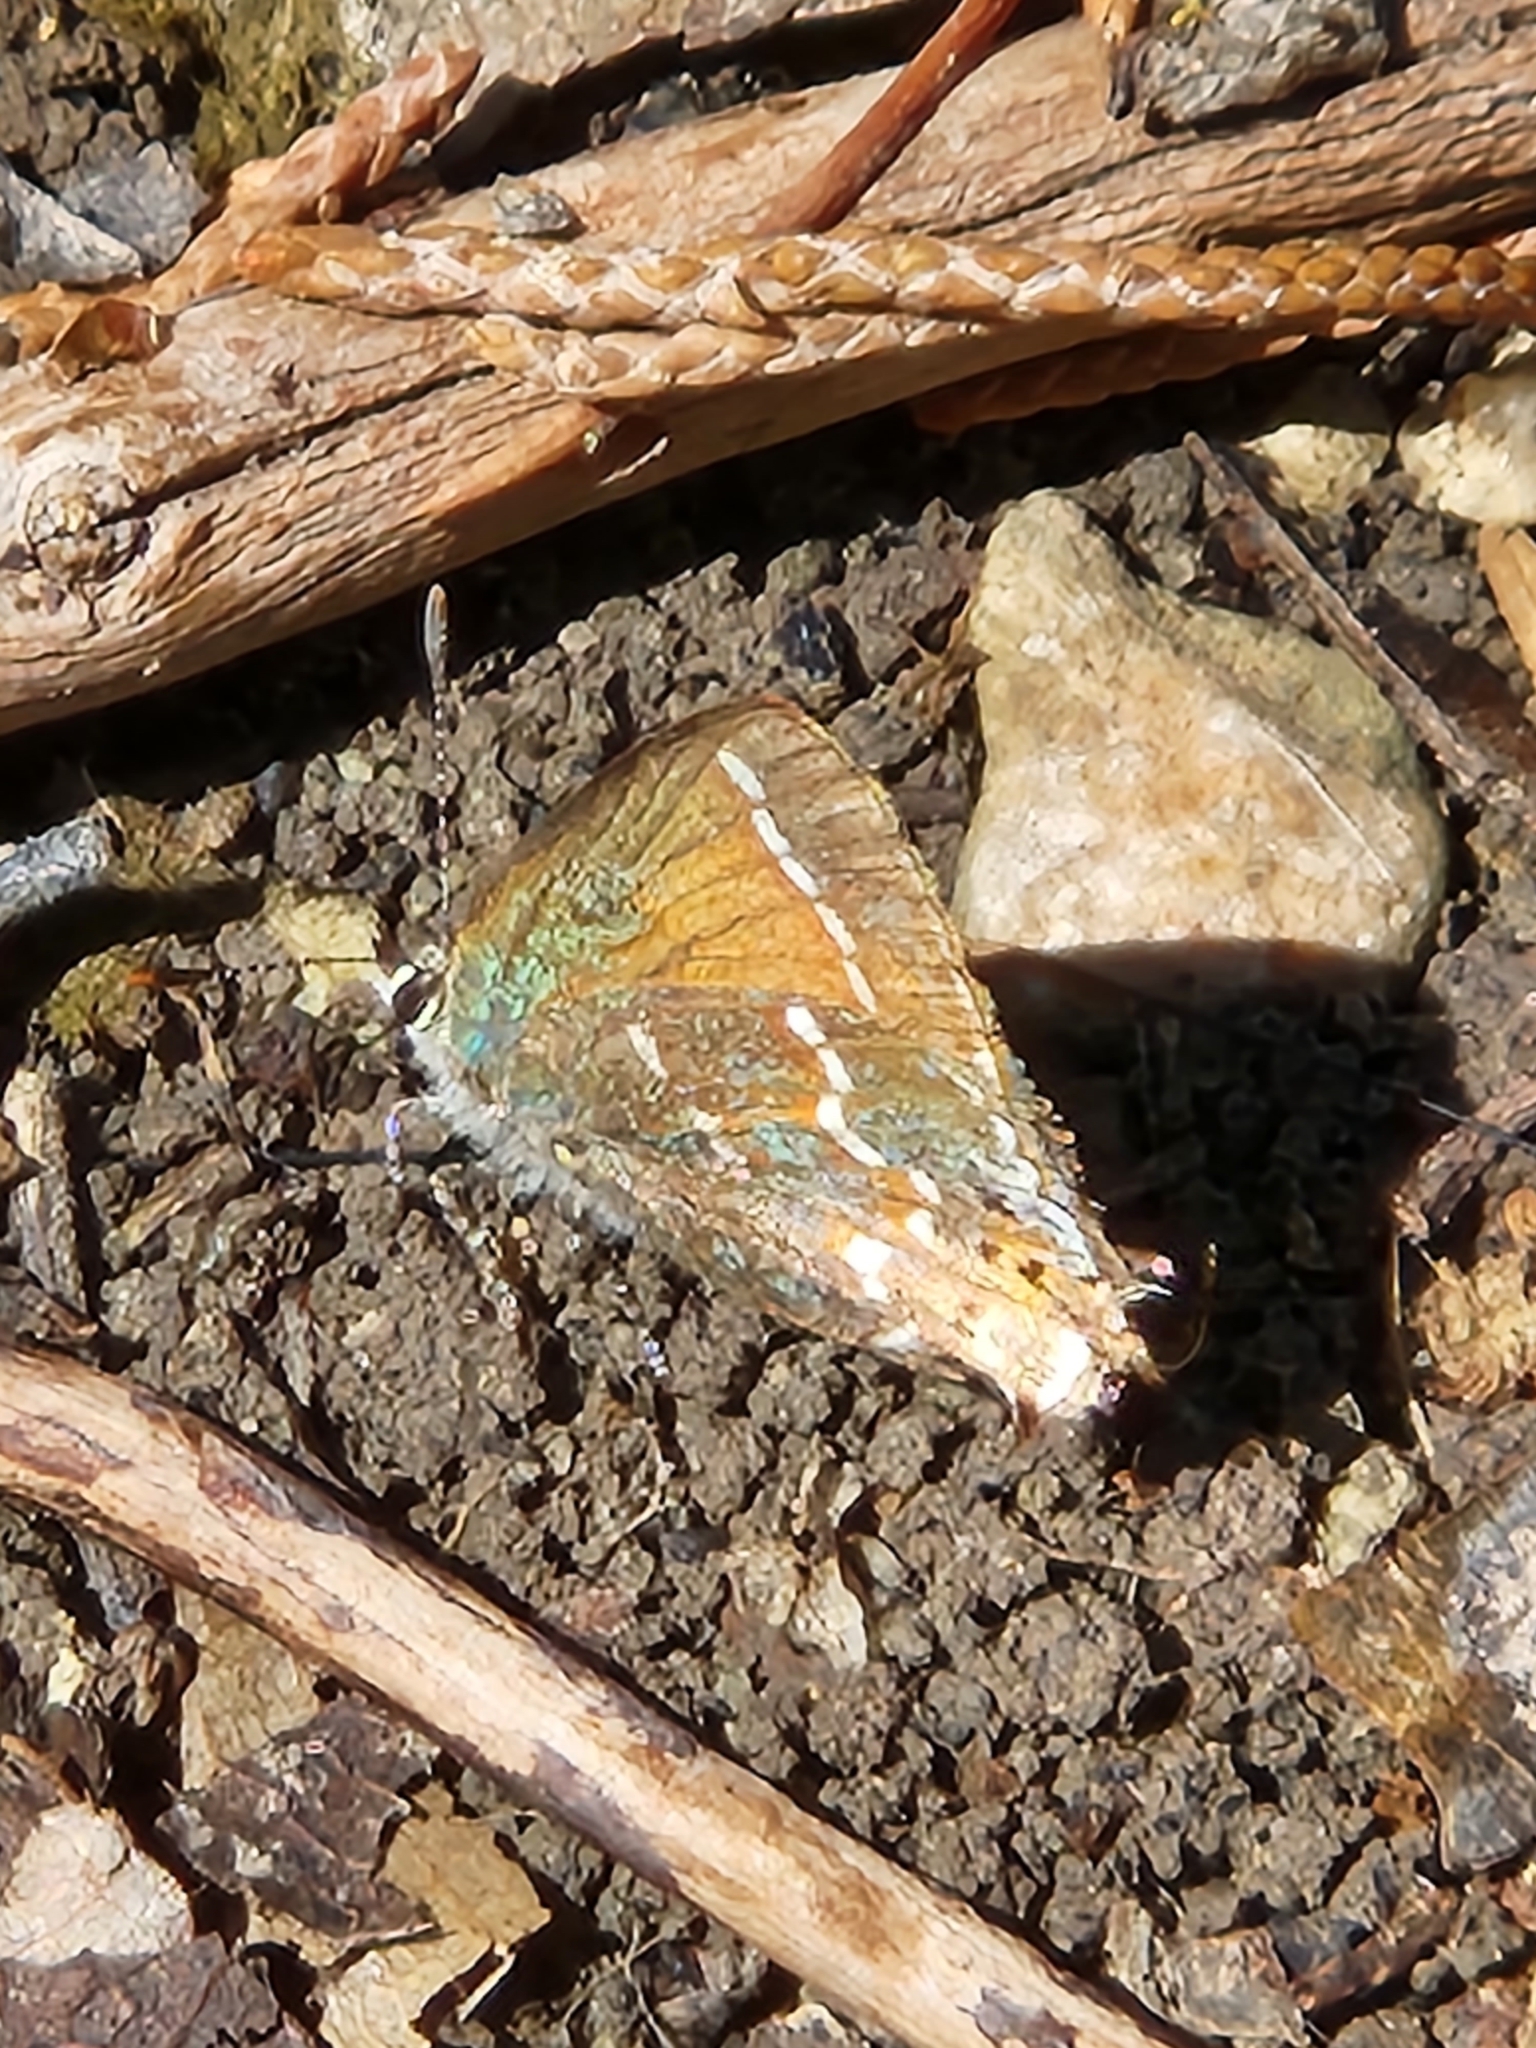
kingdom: Animalia
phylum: Arthropoda
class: Insecta
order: Lepidoptera
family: Lycaenidae
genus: Mitoura
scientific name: Mitoura gryneus
